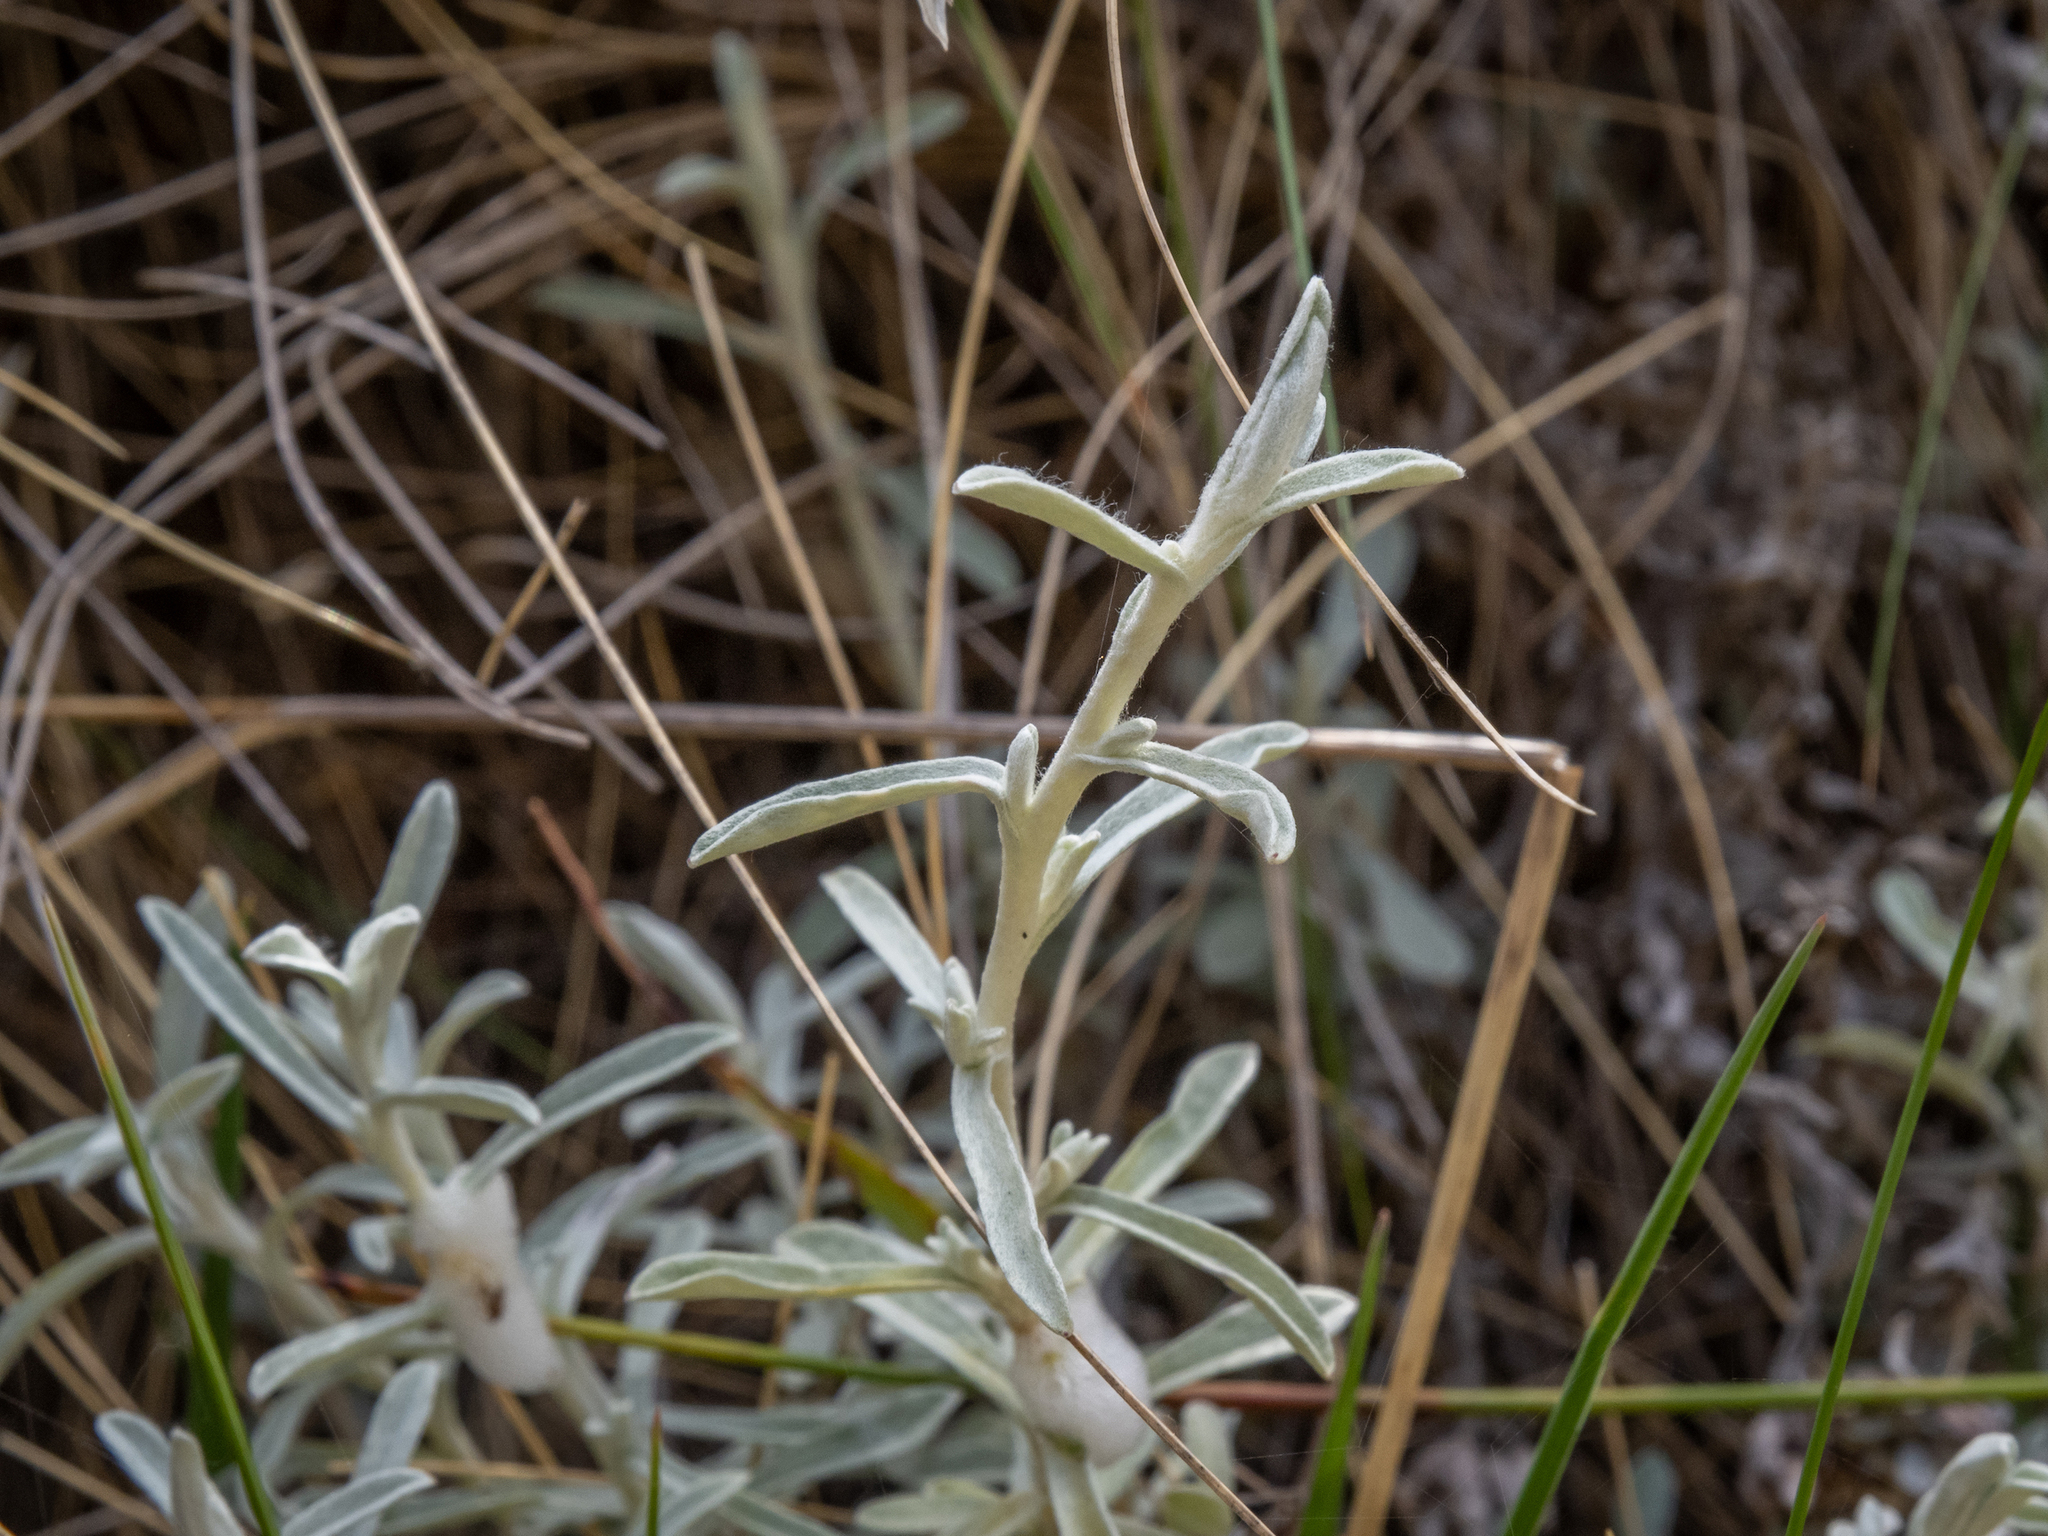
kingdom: Plantae
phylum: Tracheophyta
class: Magnoliopsida
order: Asterales
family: Asteraceae
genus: Ewartiothamnus
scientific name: Ewartiothamnus sinclairii
